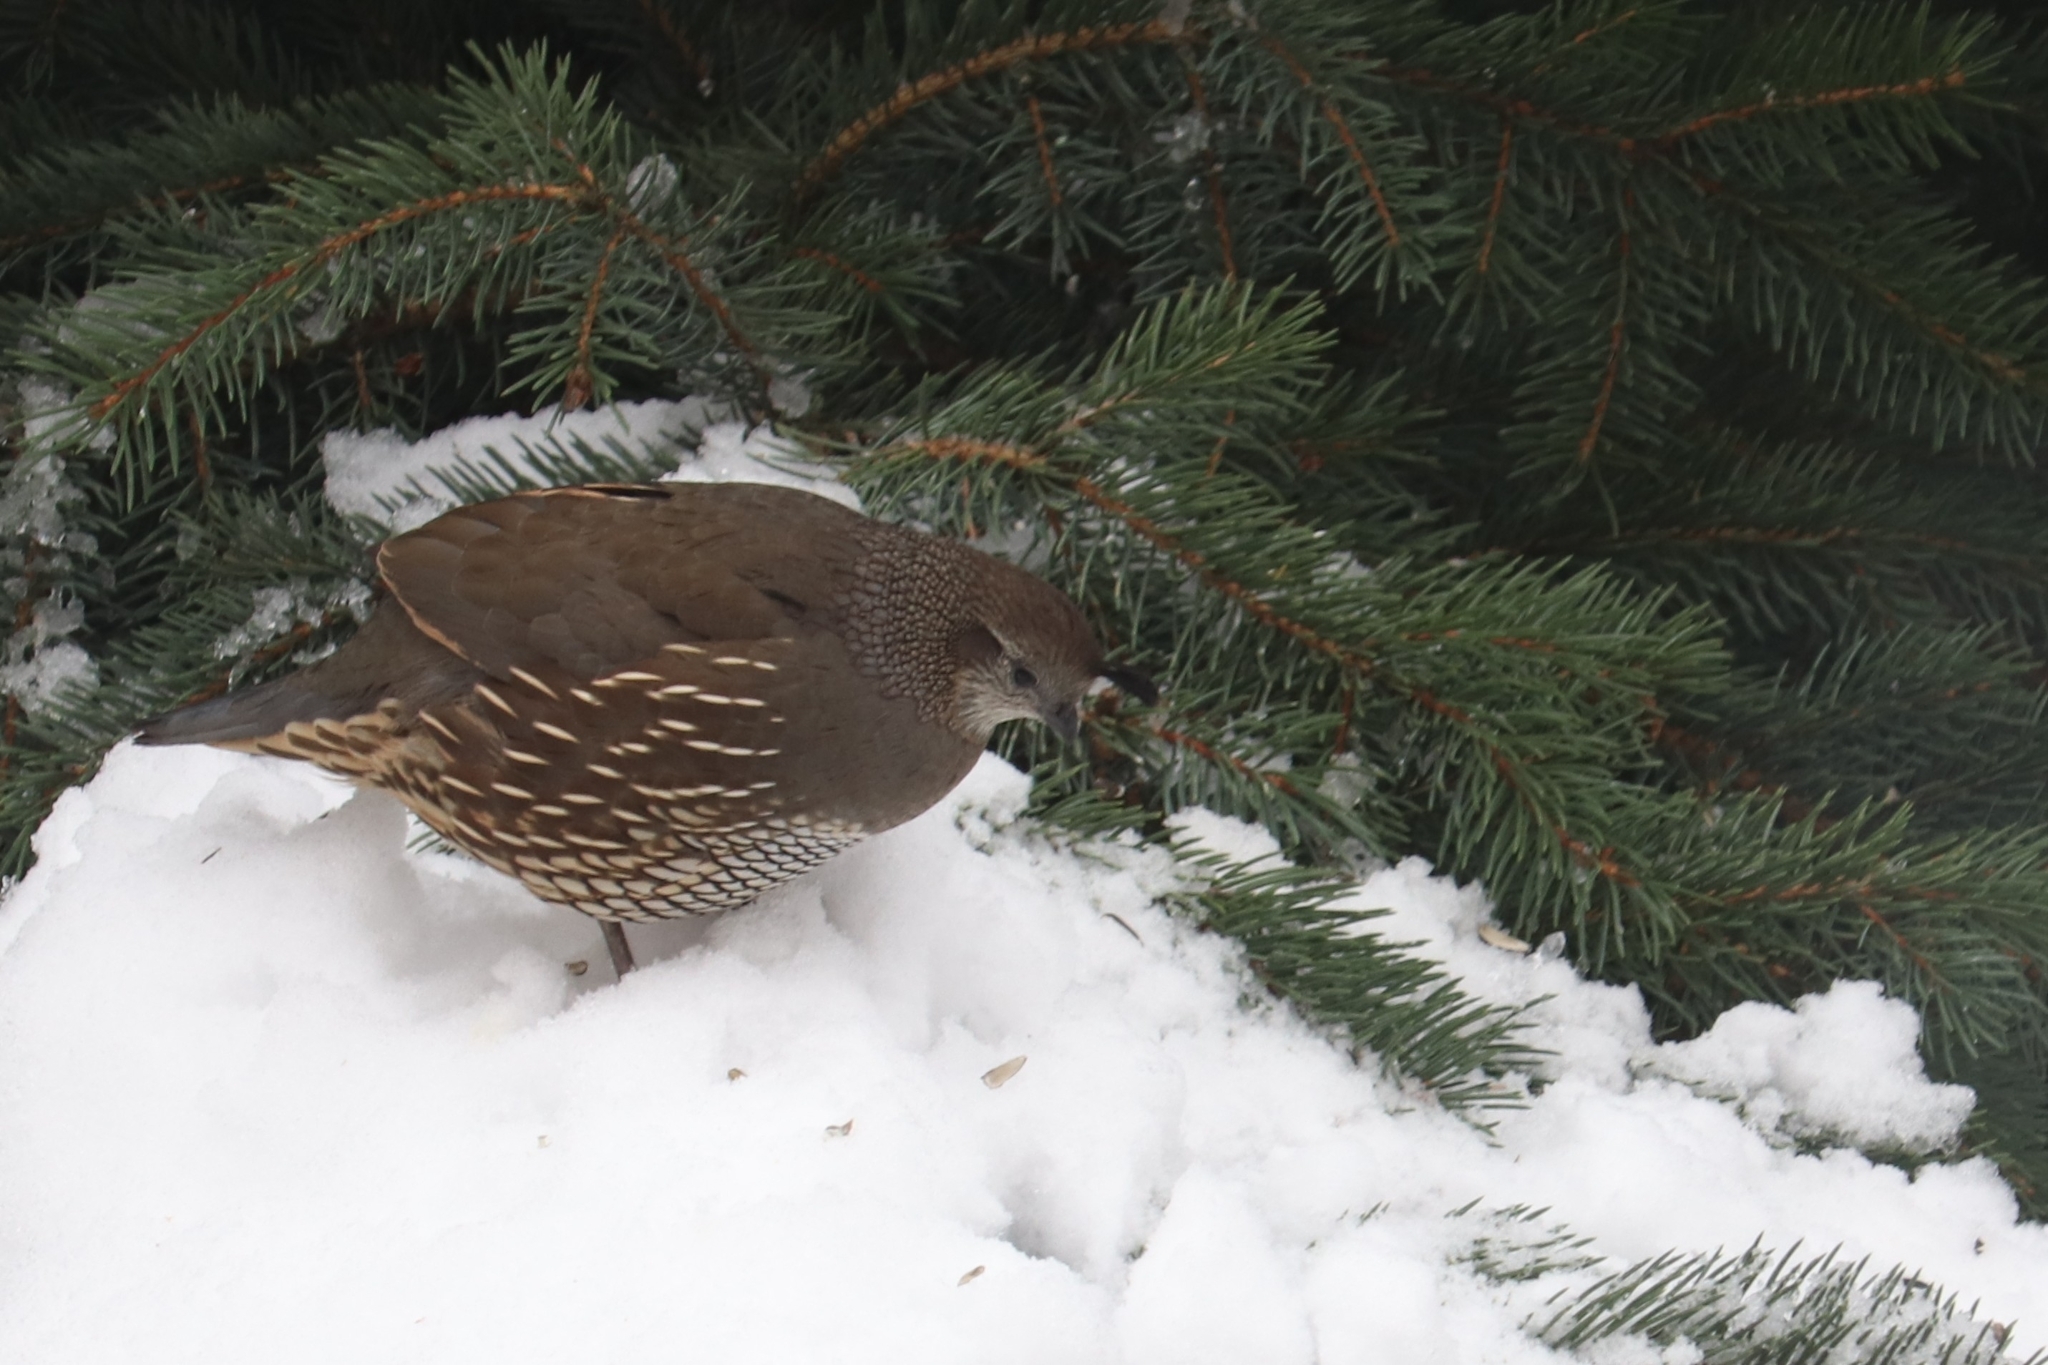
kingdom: Animalia
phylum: Chordata
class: Aves
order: Galliformes
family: Odontophoridae
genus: Callipepla
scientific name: Callipepla californica
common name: California quail
